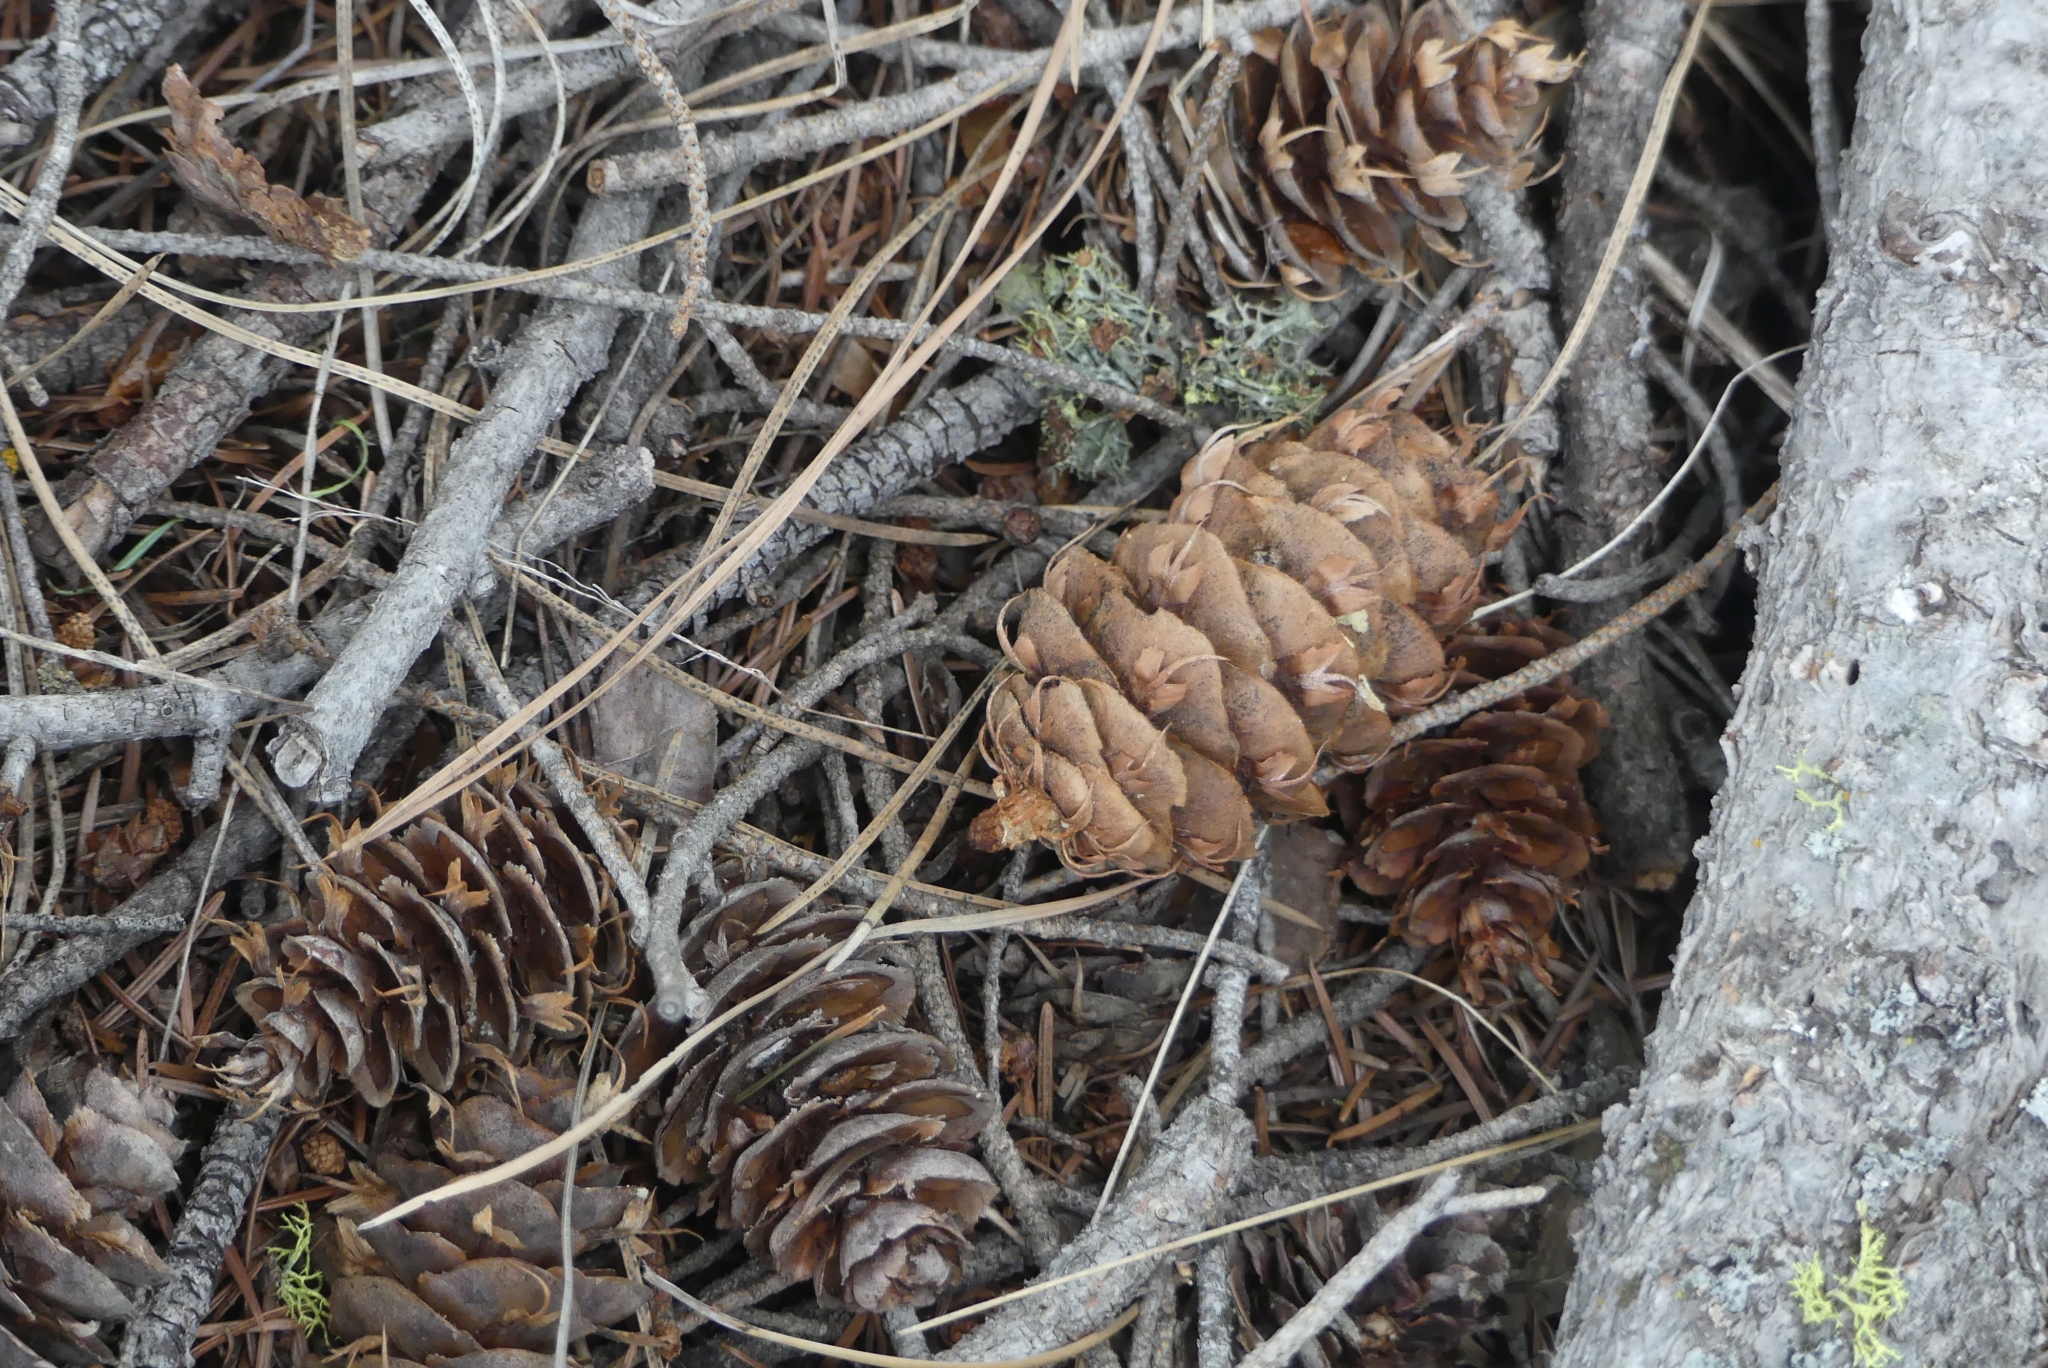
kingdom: Plantae
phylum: Tracheophyta
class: Pinopsida
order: Pinales
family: Pinaceae
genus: Pseudotsuga
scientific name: Pseudotsuga menziesii
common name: Douglas fir
